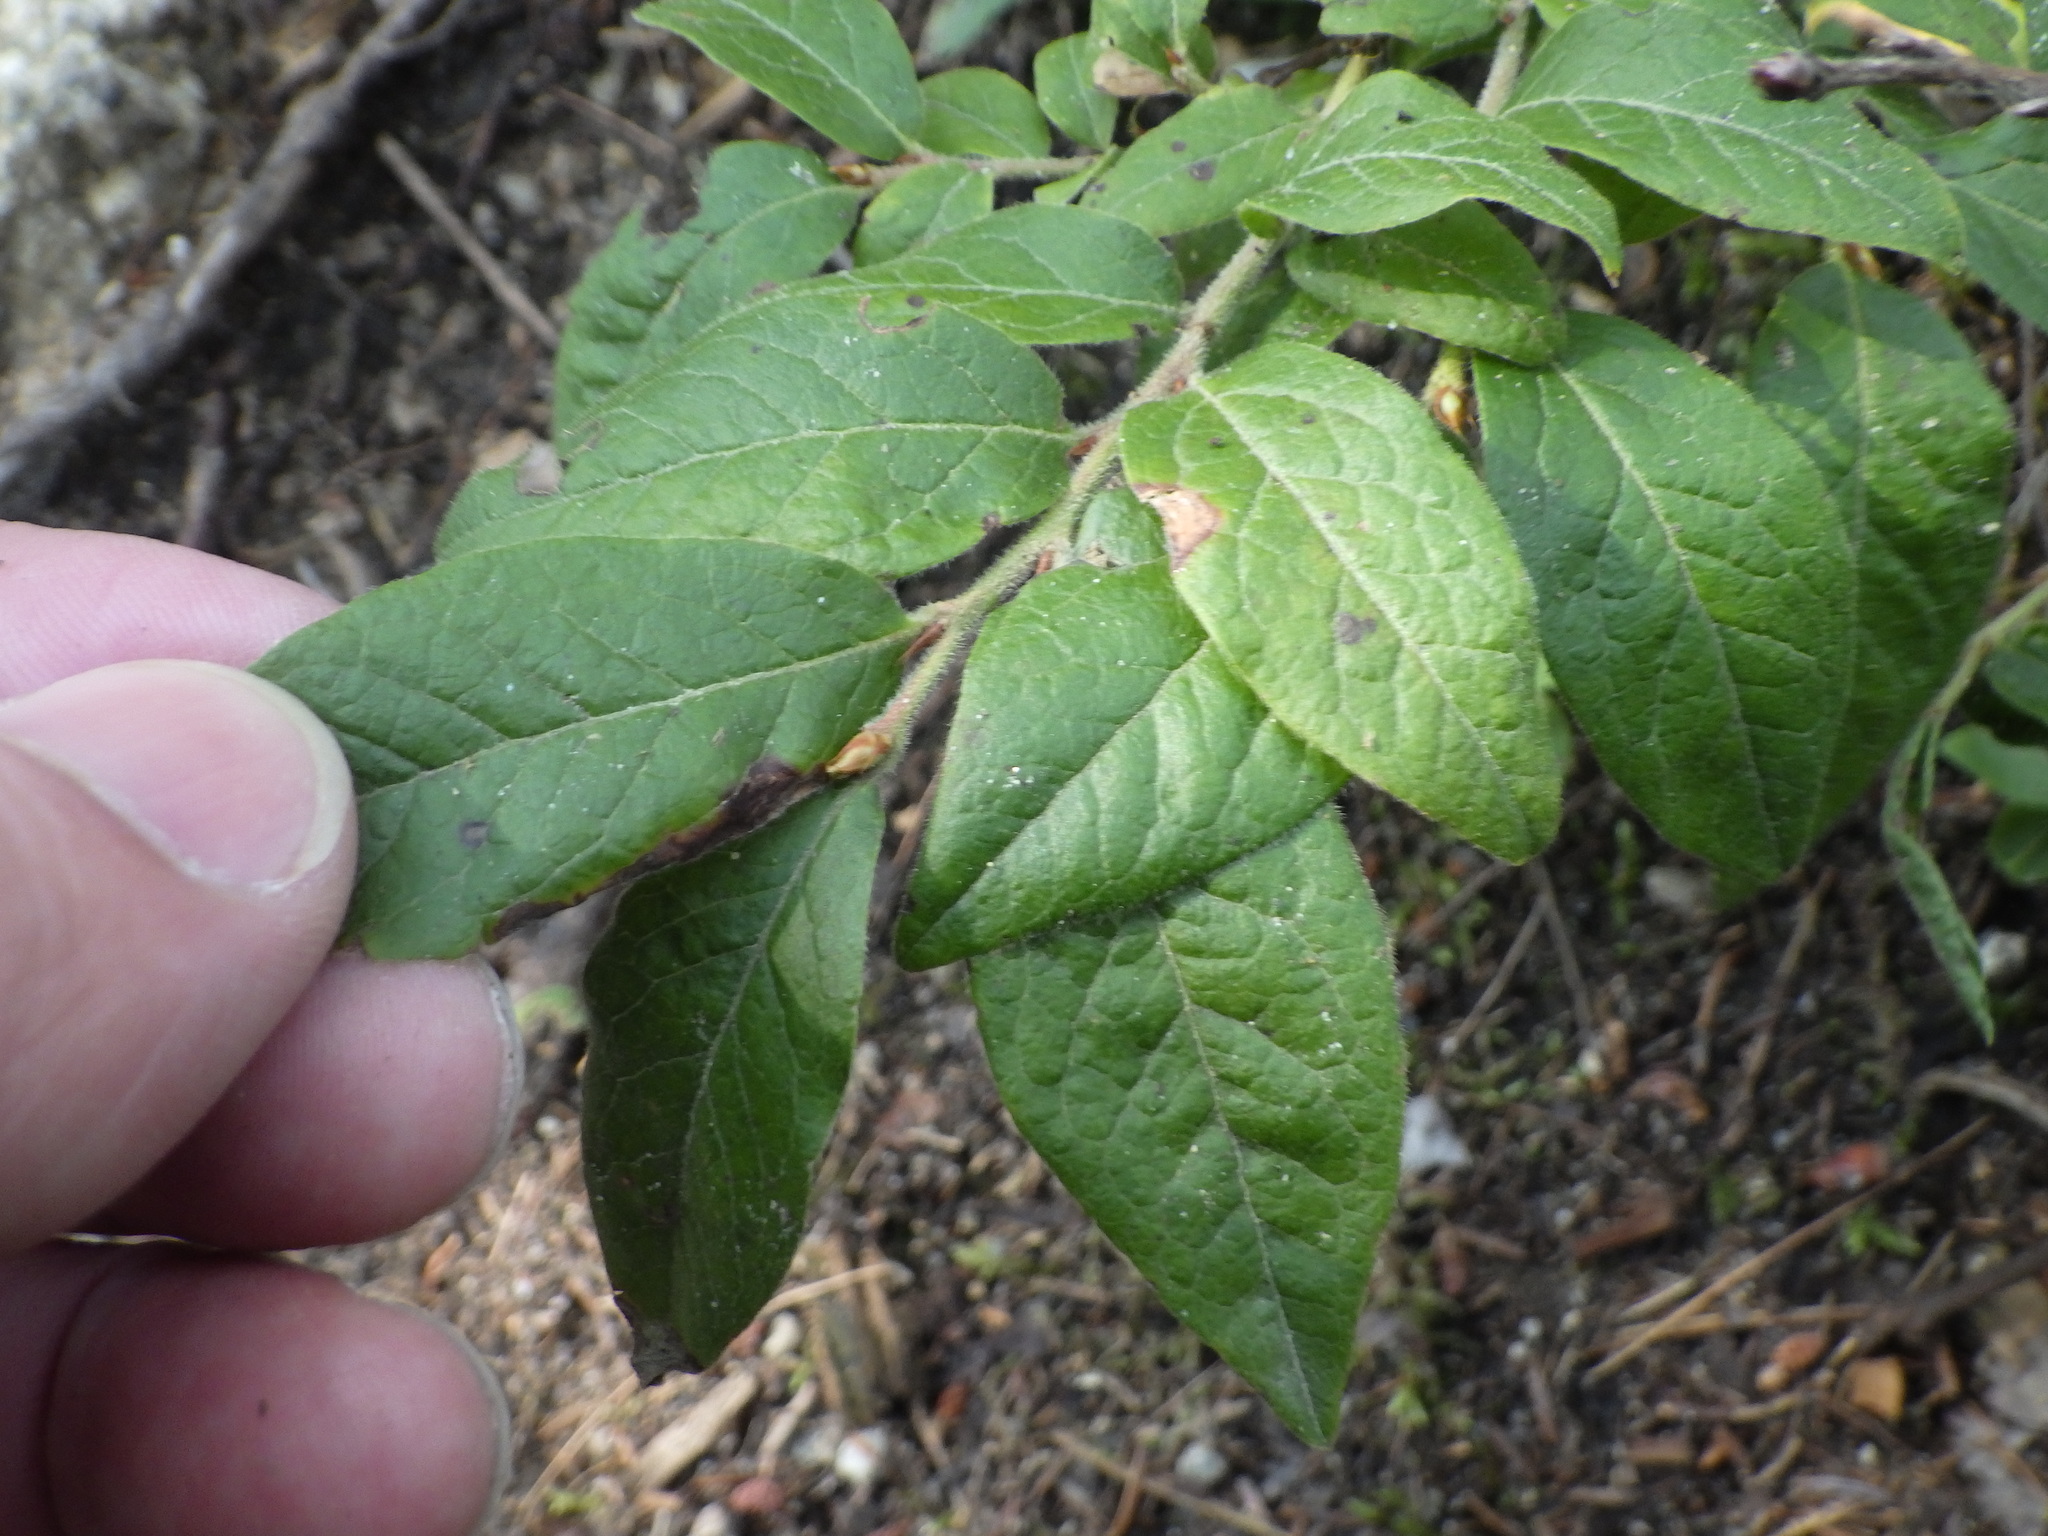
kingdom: Plantae
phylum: Tracheophyta
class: Magnoliopsida
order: Ericales
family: Ericaceae
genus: Vaccinium
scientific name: Vaccinium myrtilloides
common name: Canada blueberry
